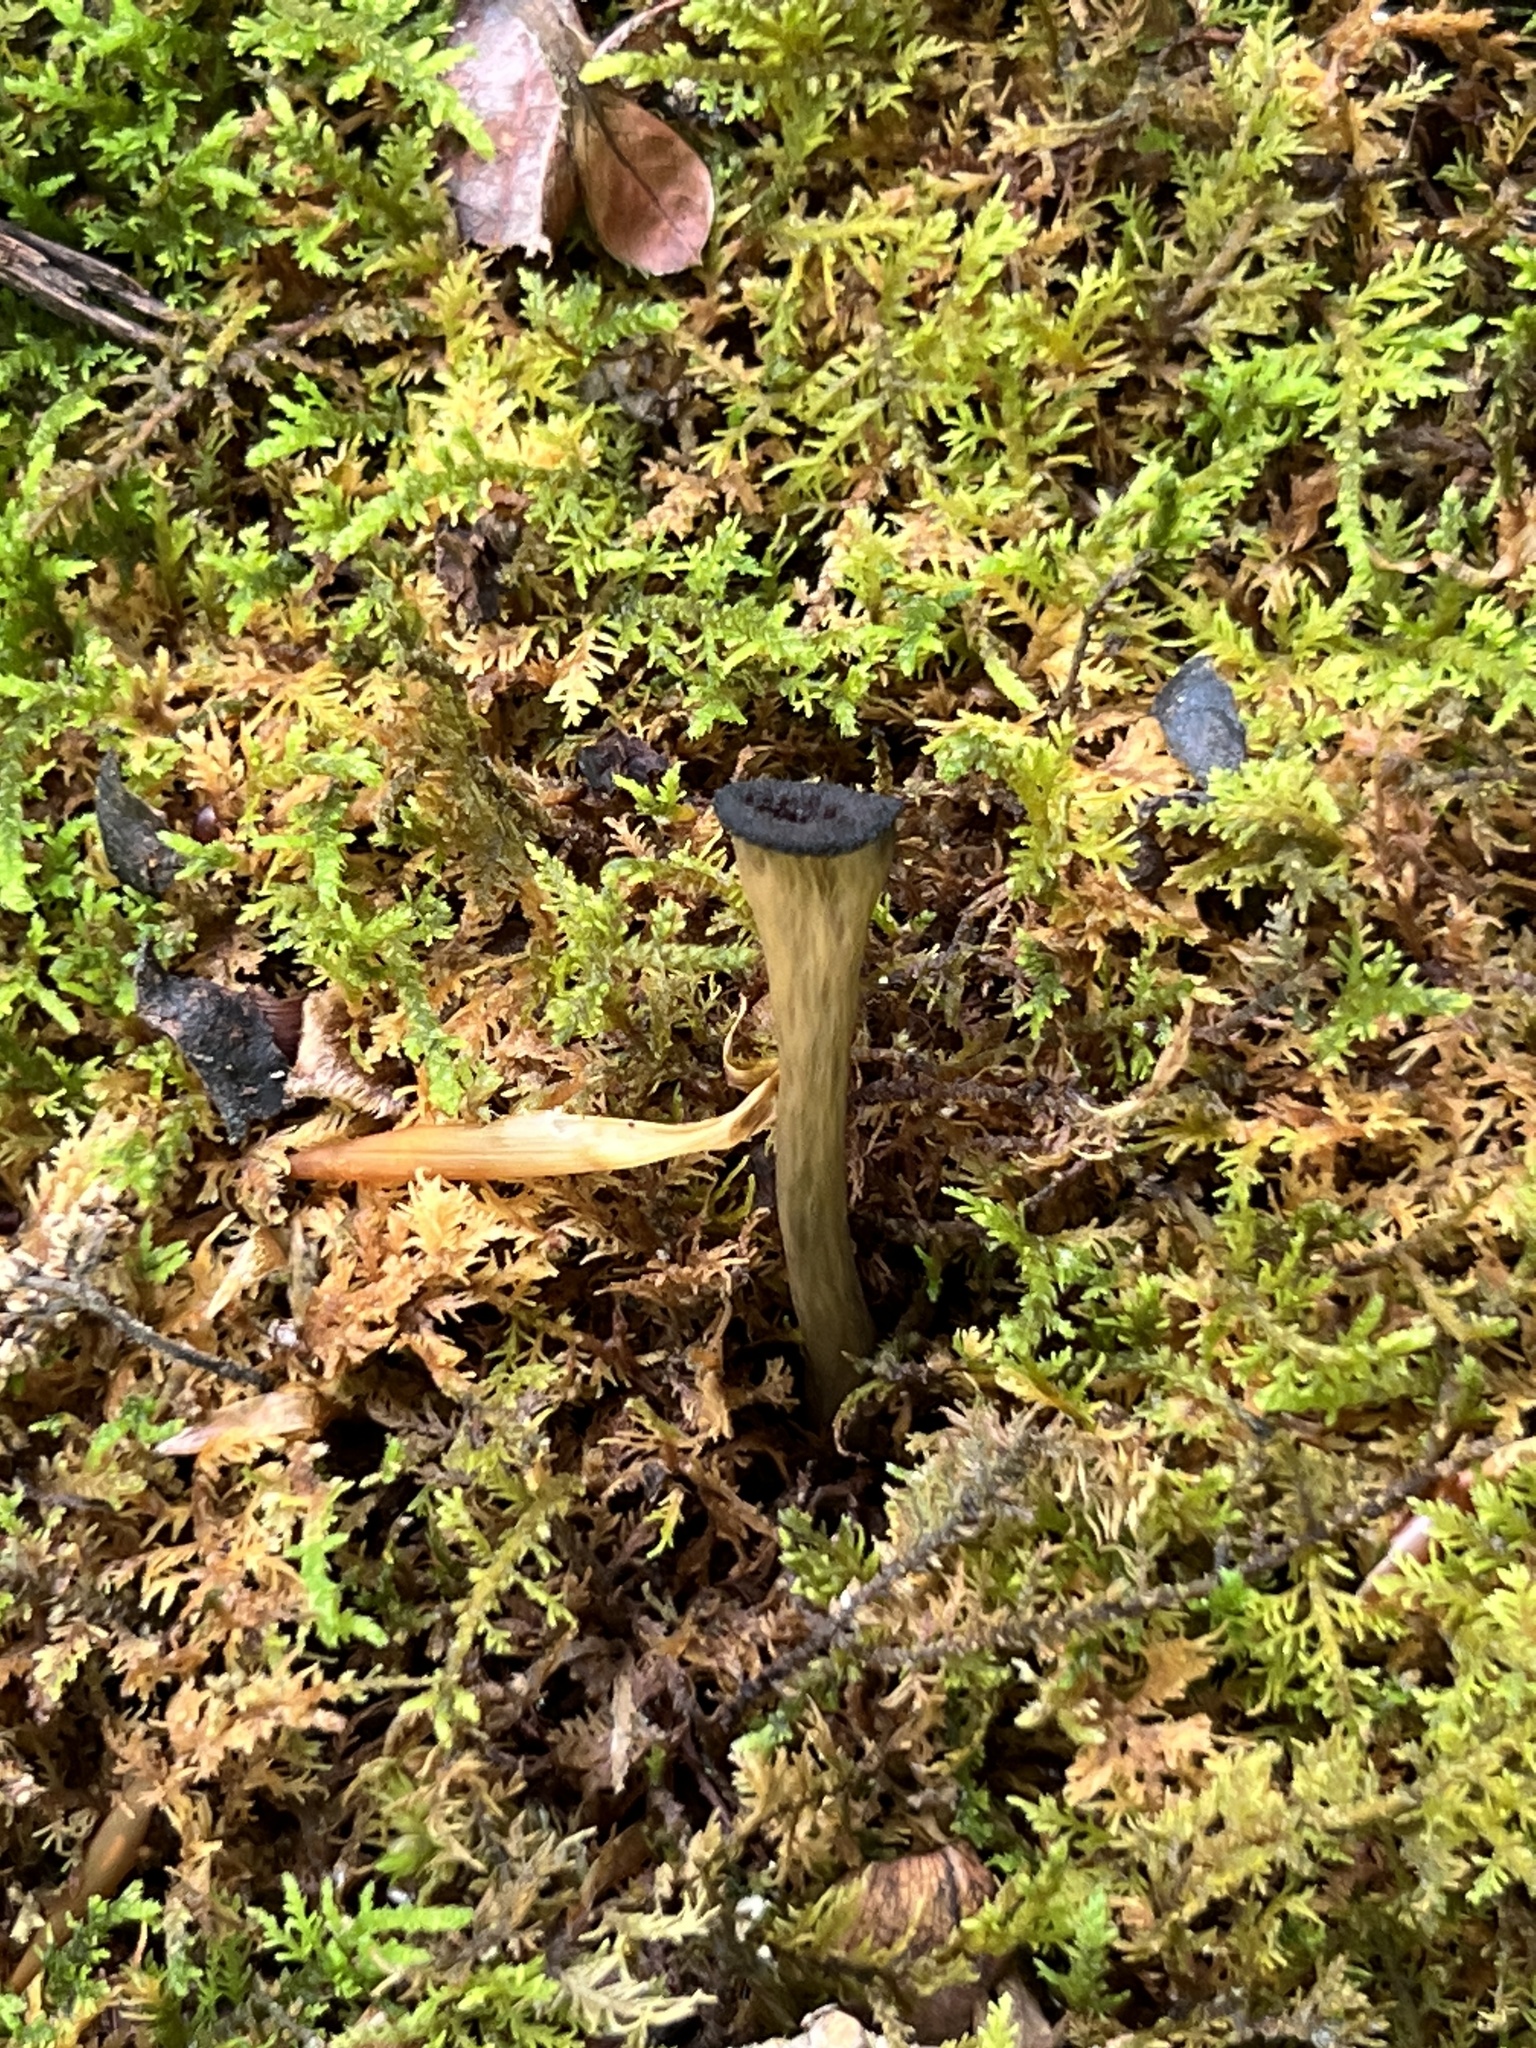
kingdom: Fungi
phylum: Basidiomycota
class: Agaricomycetes
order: Cantharellales
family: Hydnaceae
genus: Craterellus
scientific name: Craterellus cornucopioides
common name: Horn of plenty
